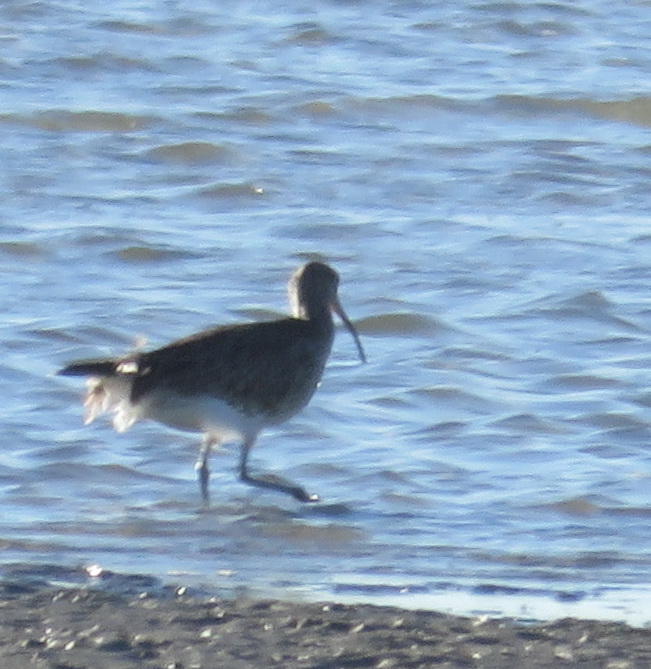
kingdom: Animalia
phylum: Chordata
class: Aves
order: Charadriiformes
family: Scolopacidae
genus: Numenius
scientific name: Numenius phaeopus
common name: Whimbrel
